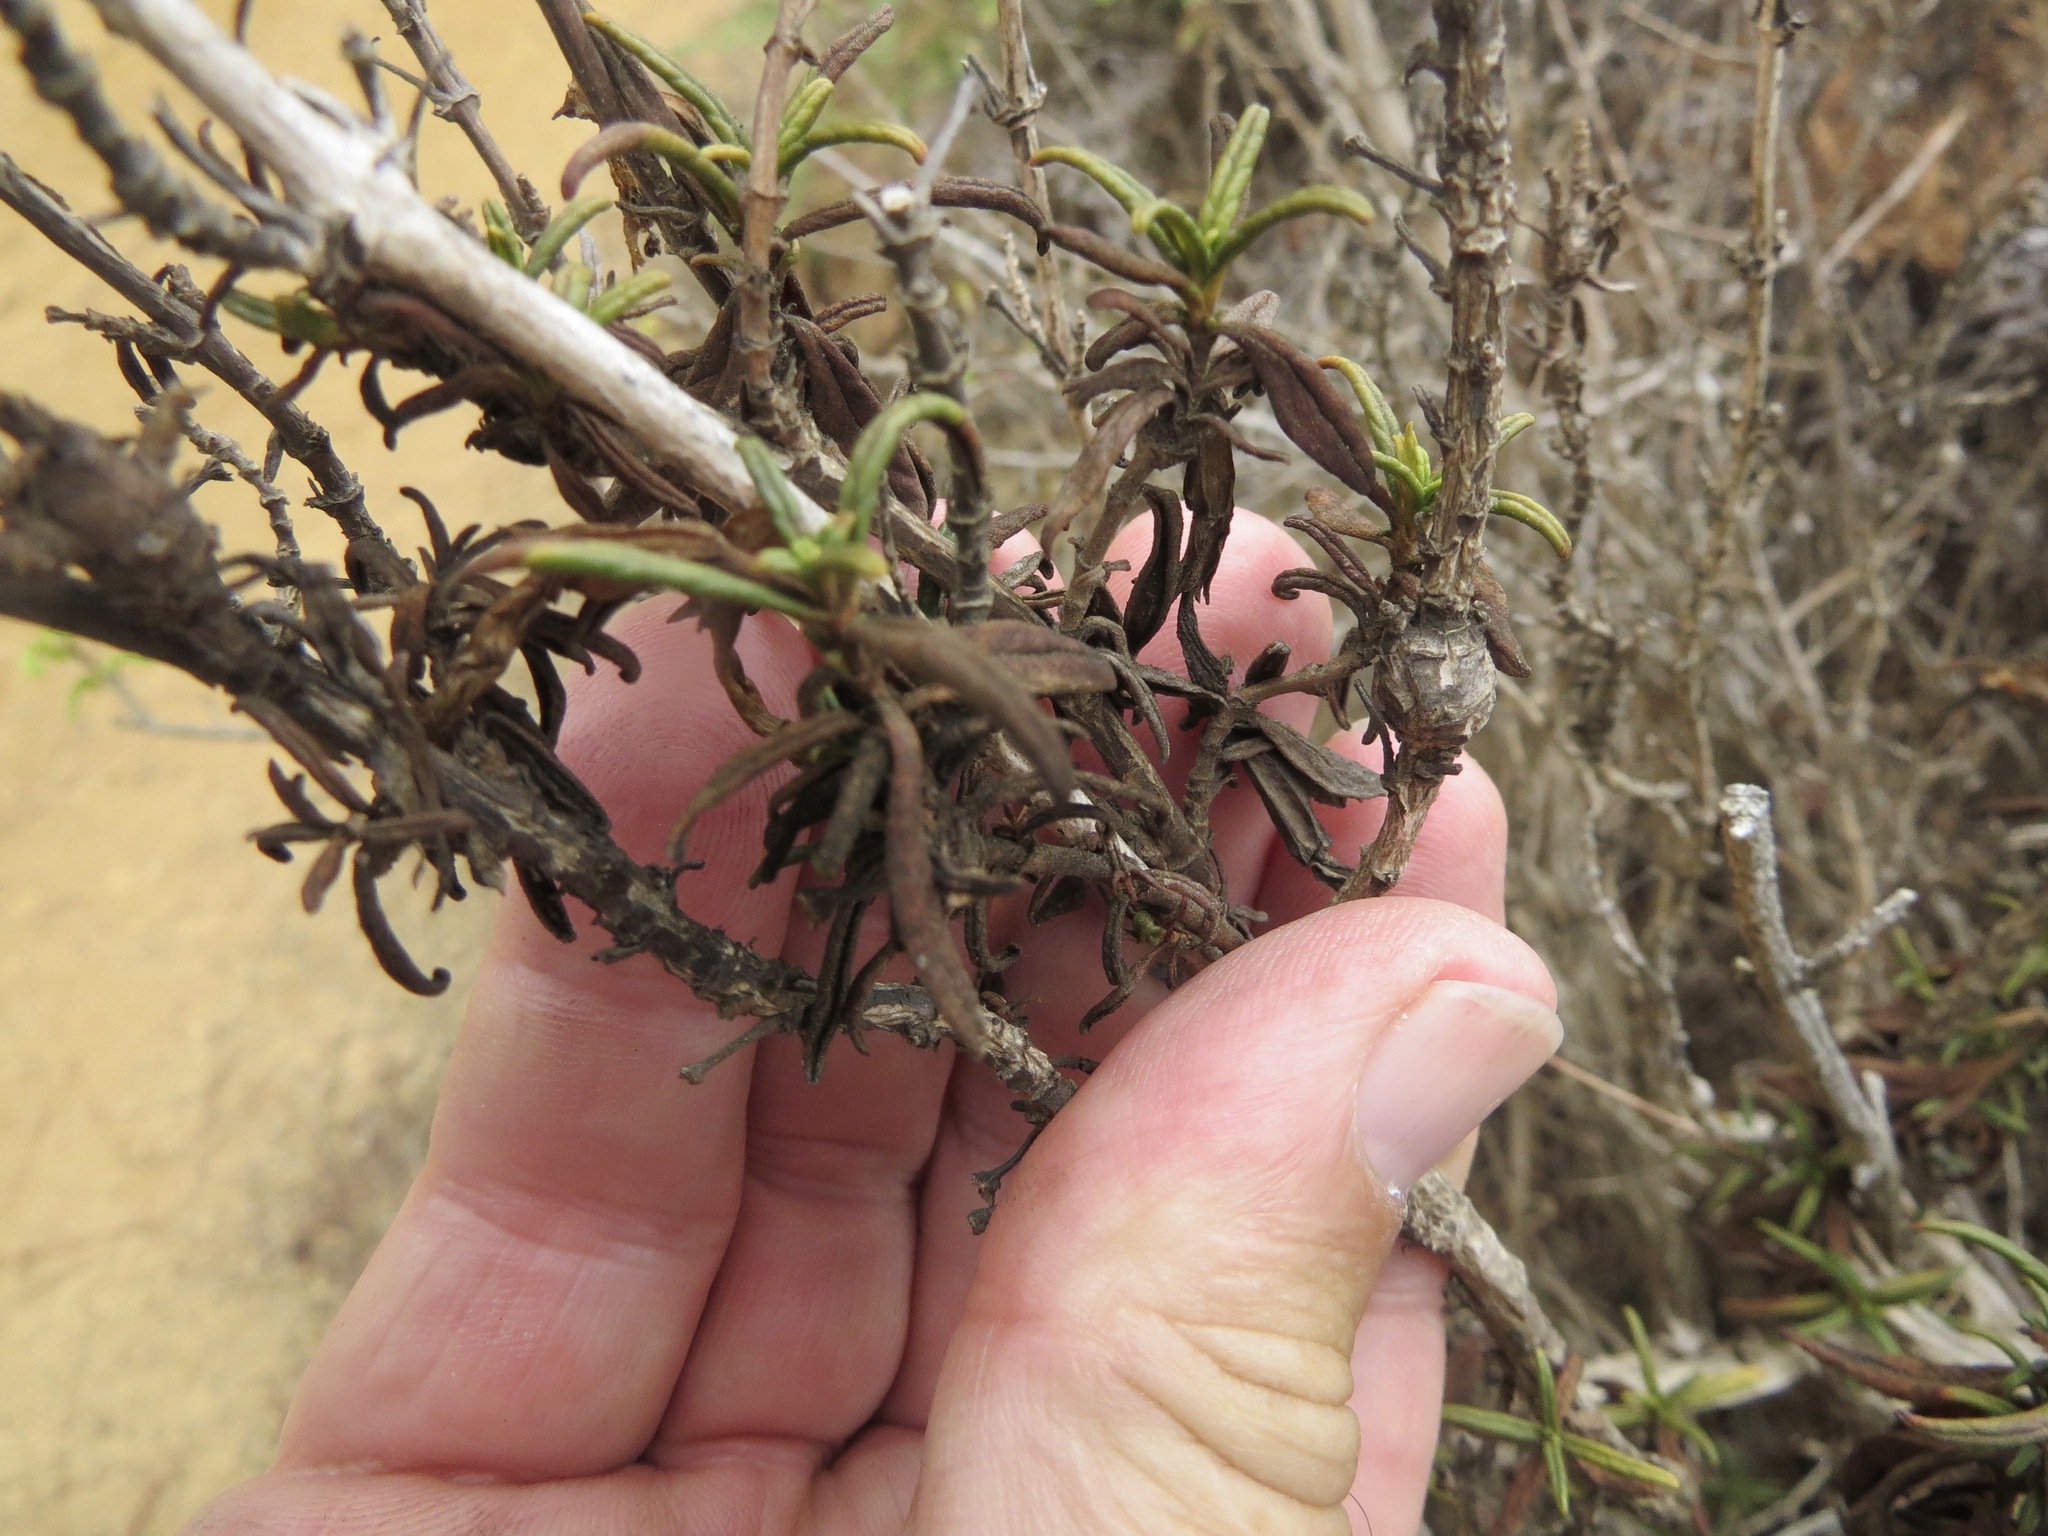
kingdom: Animalia
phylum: Arthropoda
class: Insecta
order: Diptera
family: Cecidomyiidae
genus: Neolasioptera
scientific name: Neolasioptera mimuli
